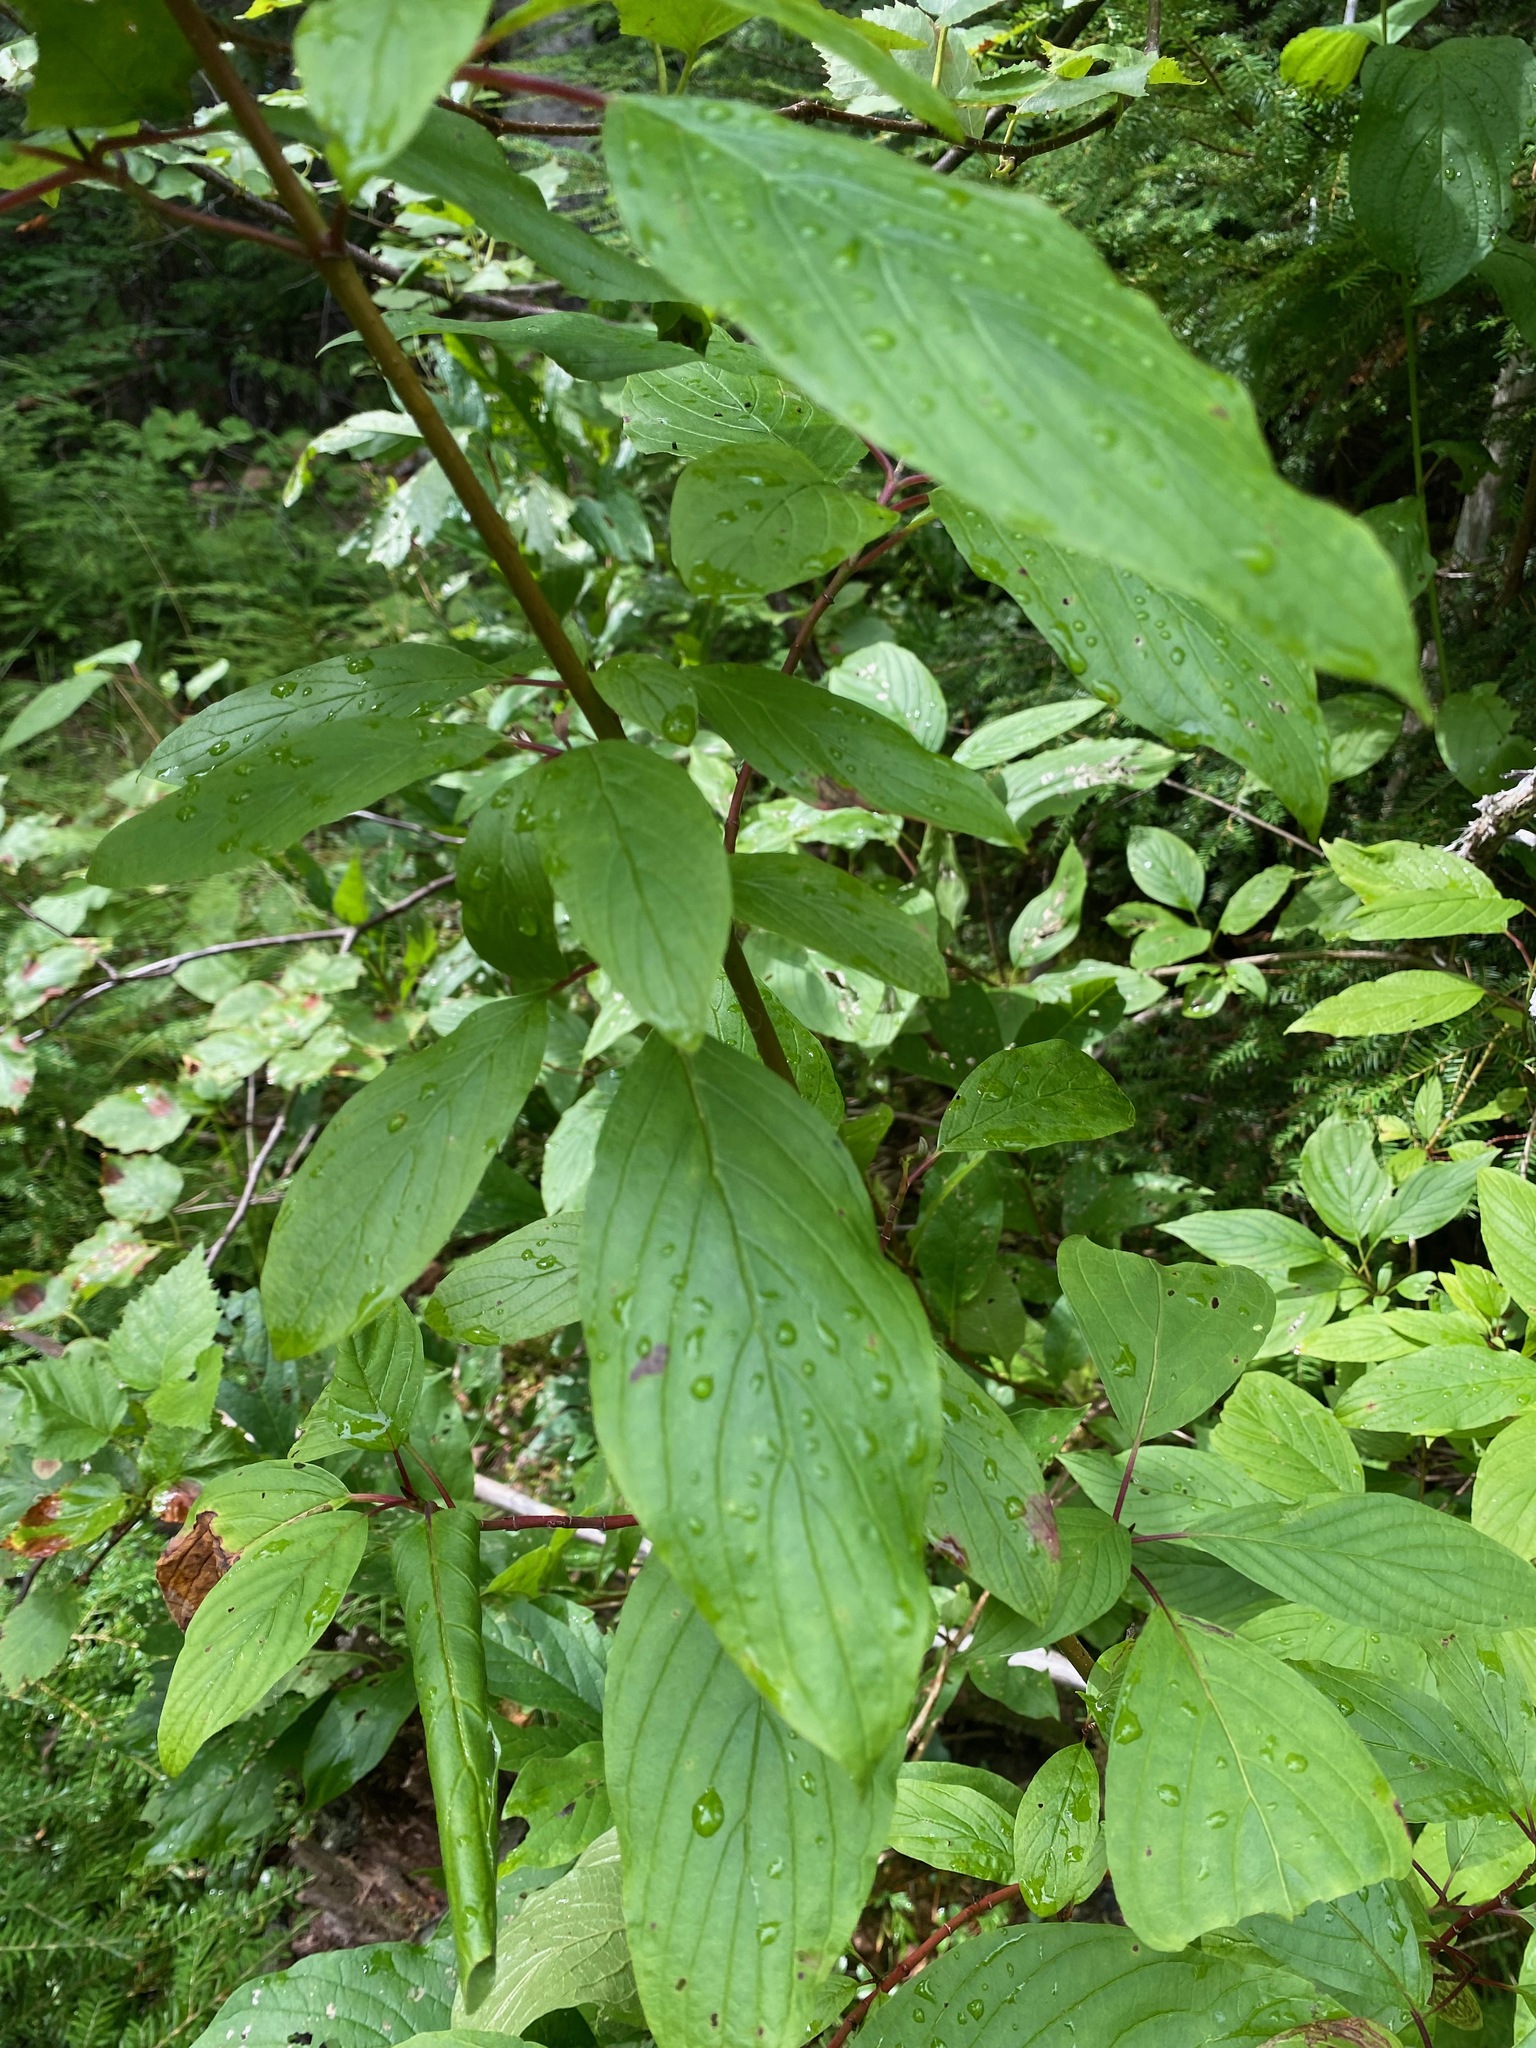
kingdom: Plantae
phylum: Tracheophyta
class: Magnoliopsida
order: Cornales
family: Cornaceae
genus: Cornus
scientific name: Cornus sericea
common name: Red-osier dogwood
